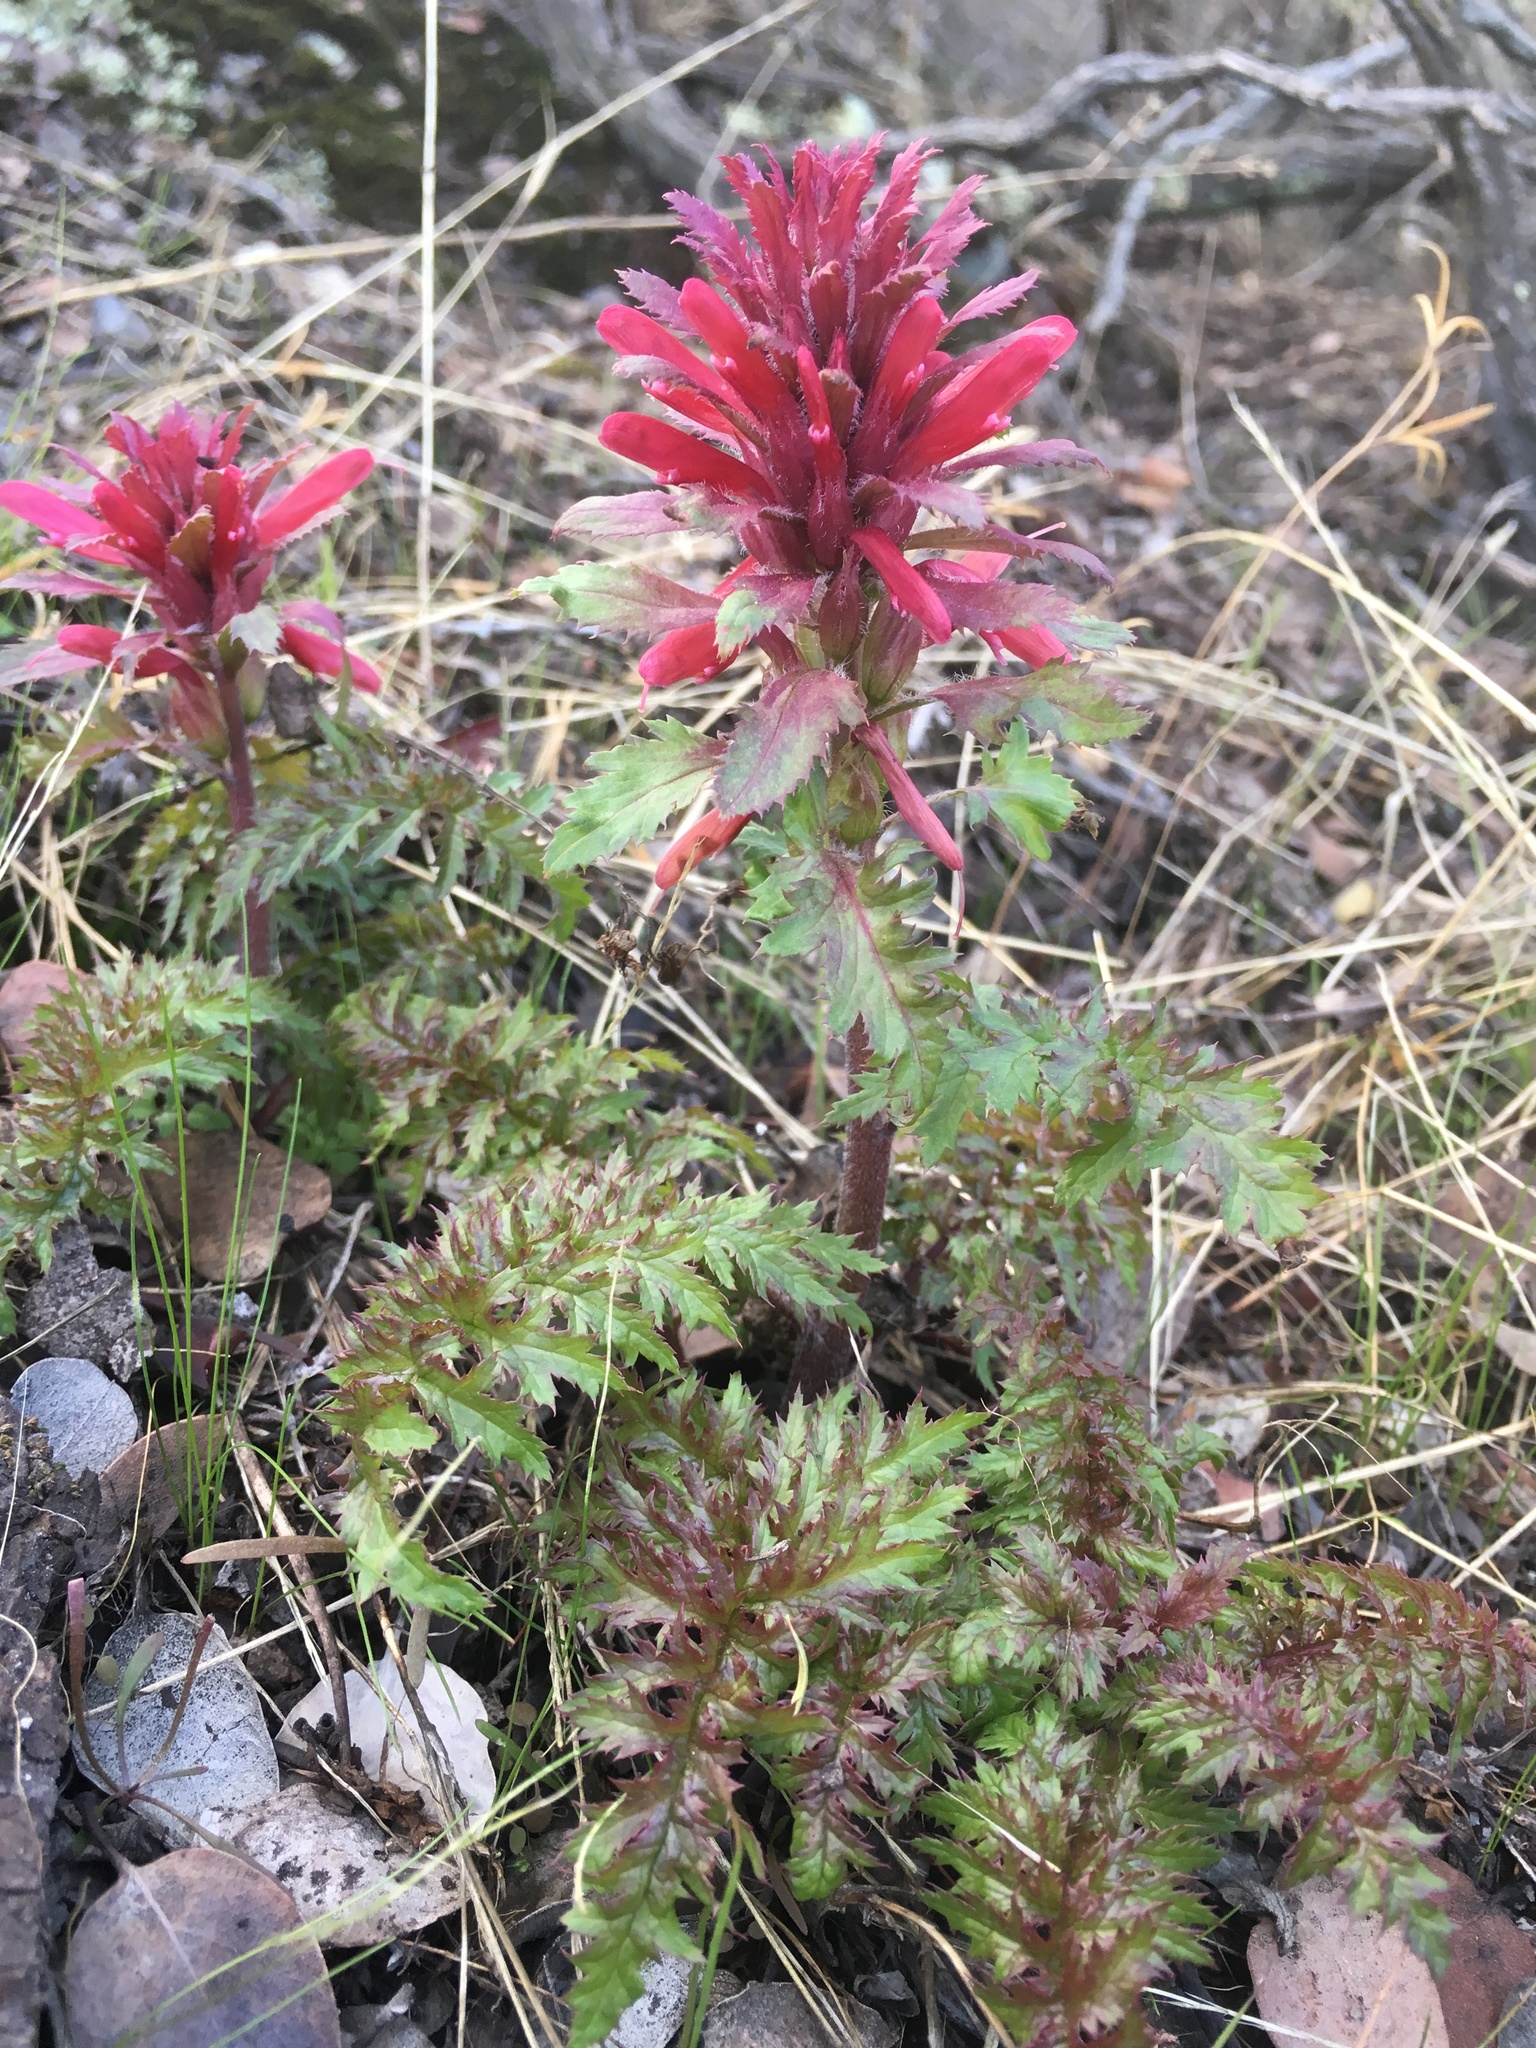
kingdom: Plantae
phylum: Tracheophyta
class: Magnoliopsida
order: Lamiales
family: Orobanchaceae
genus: Pedicularis
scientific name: Pedicularis densiflora
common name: Indian warrior
